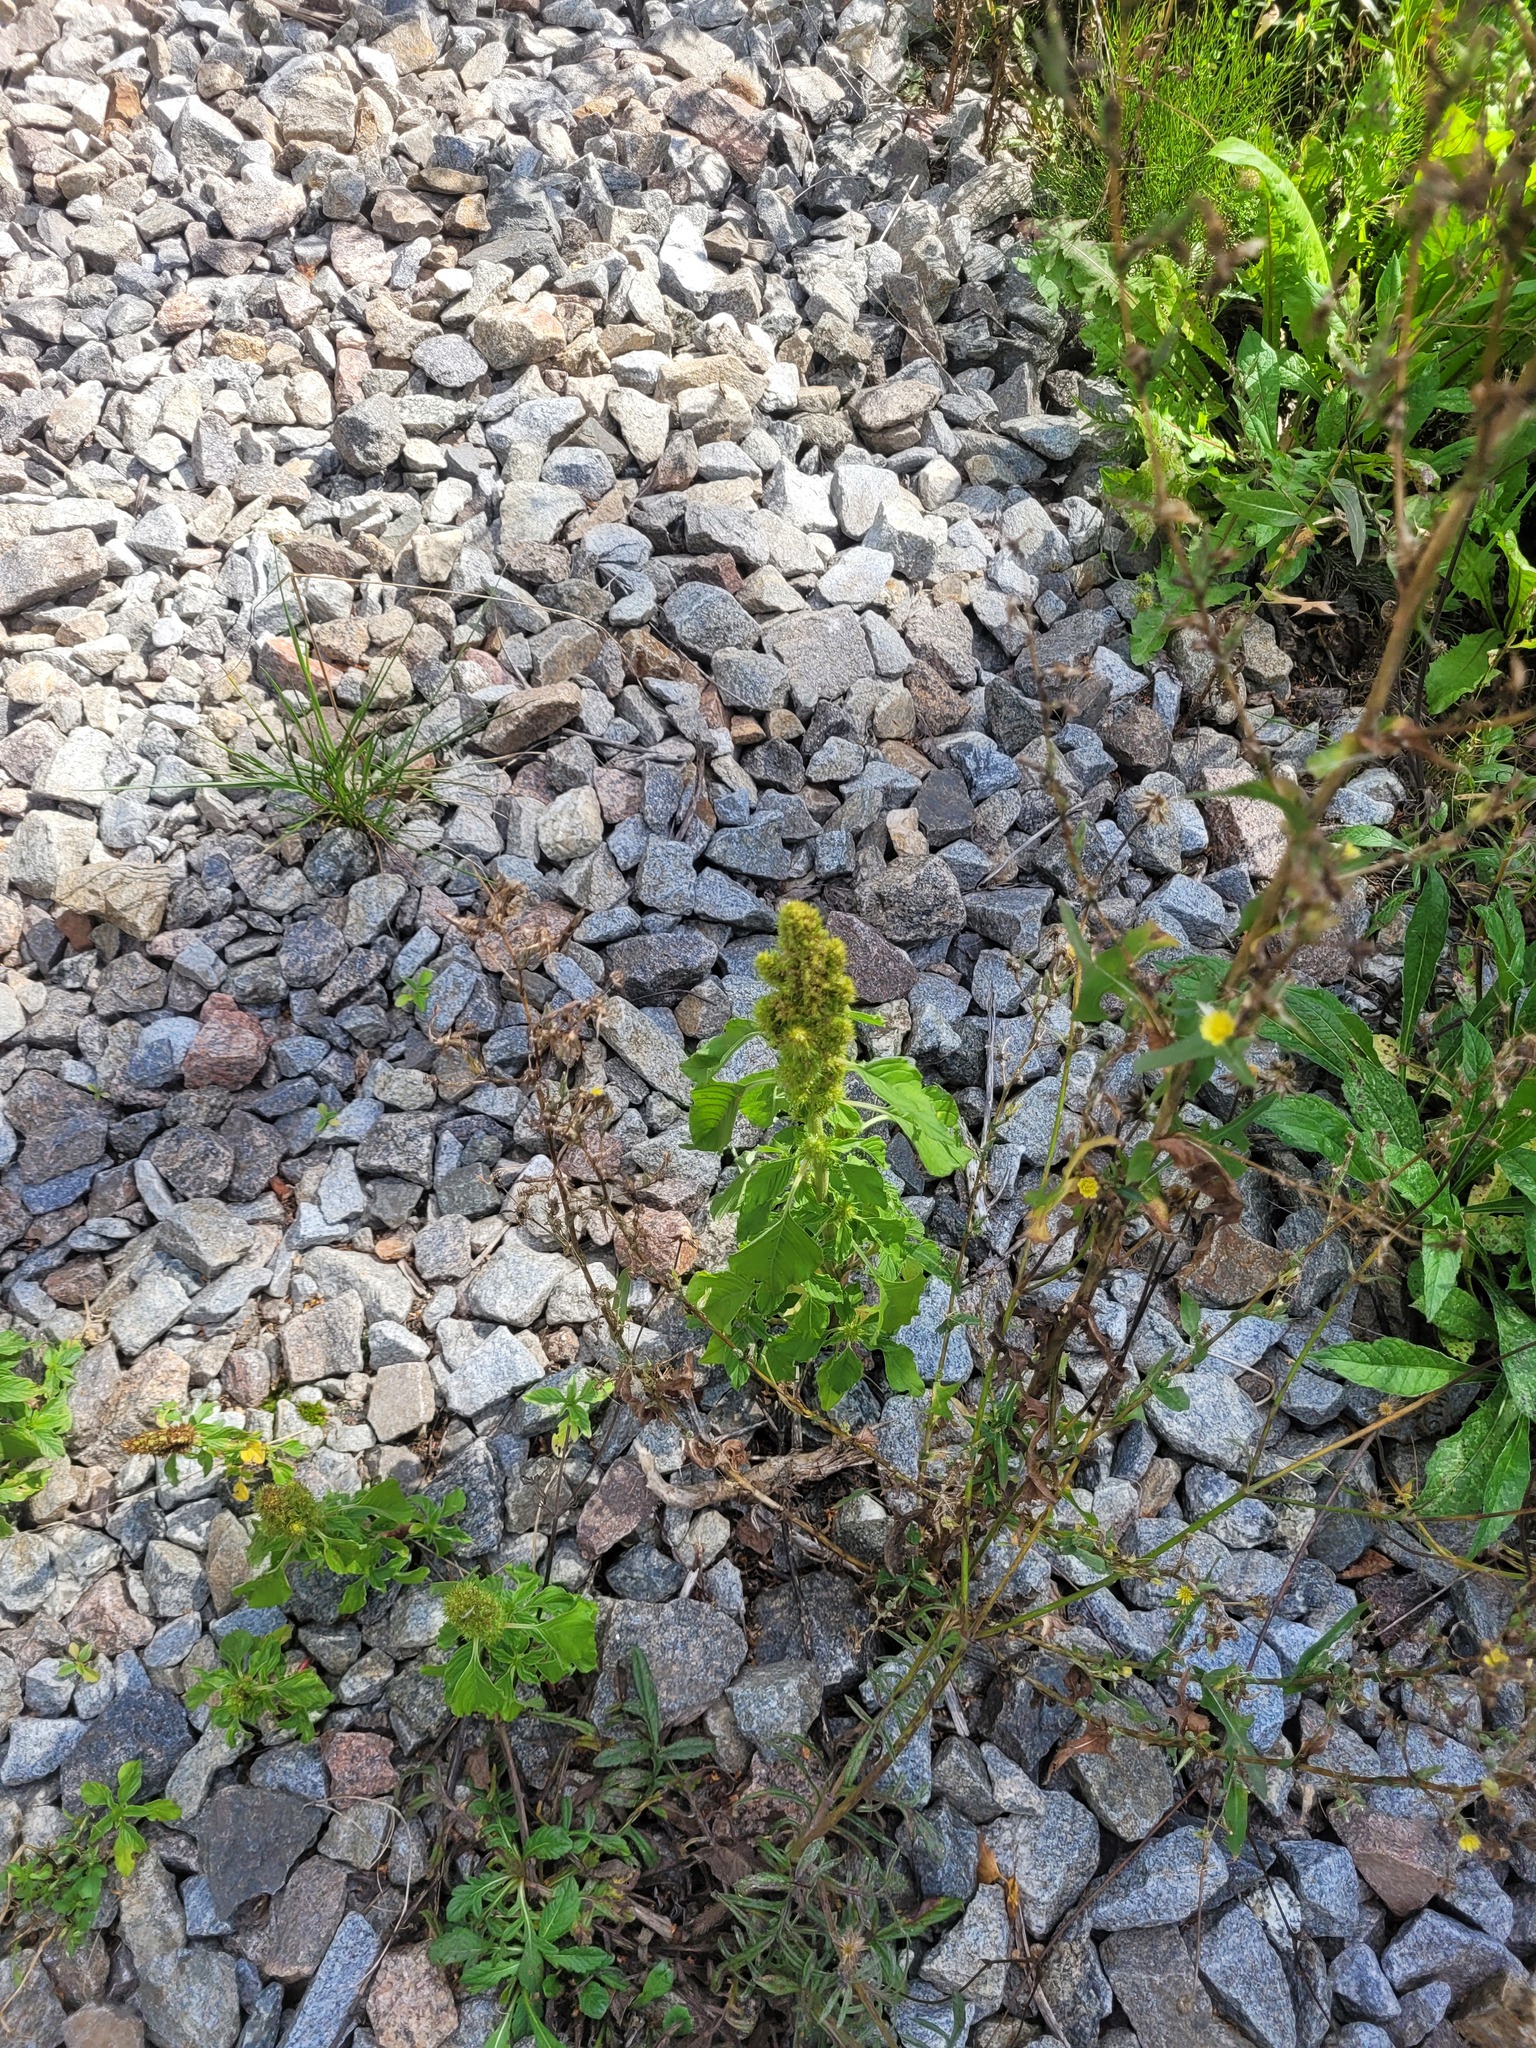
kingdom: Plantae
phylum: Tracheophyta
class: Magnoliopsida
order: Caryophyllales
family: Amaranthaceae
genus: Amaranthus
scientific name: Amaranthus retroflexus
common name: Redroot amaranth
